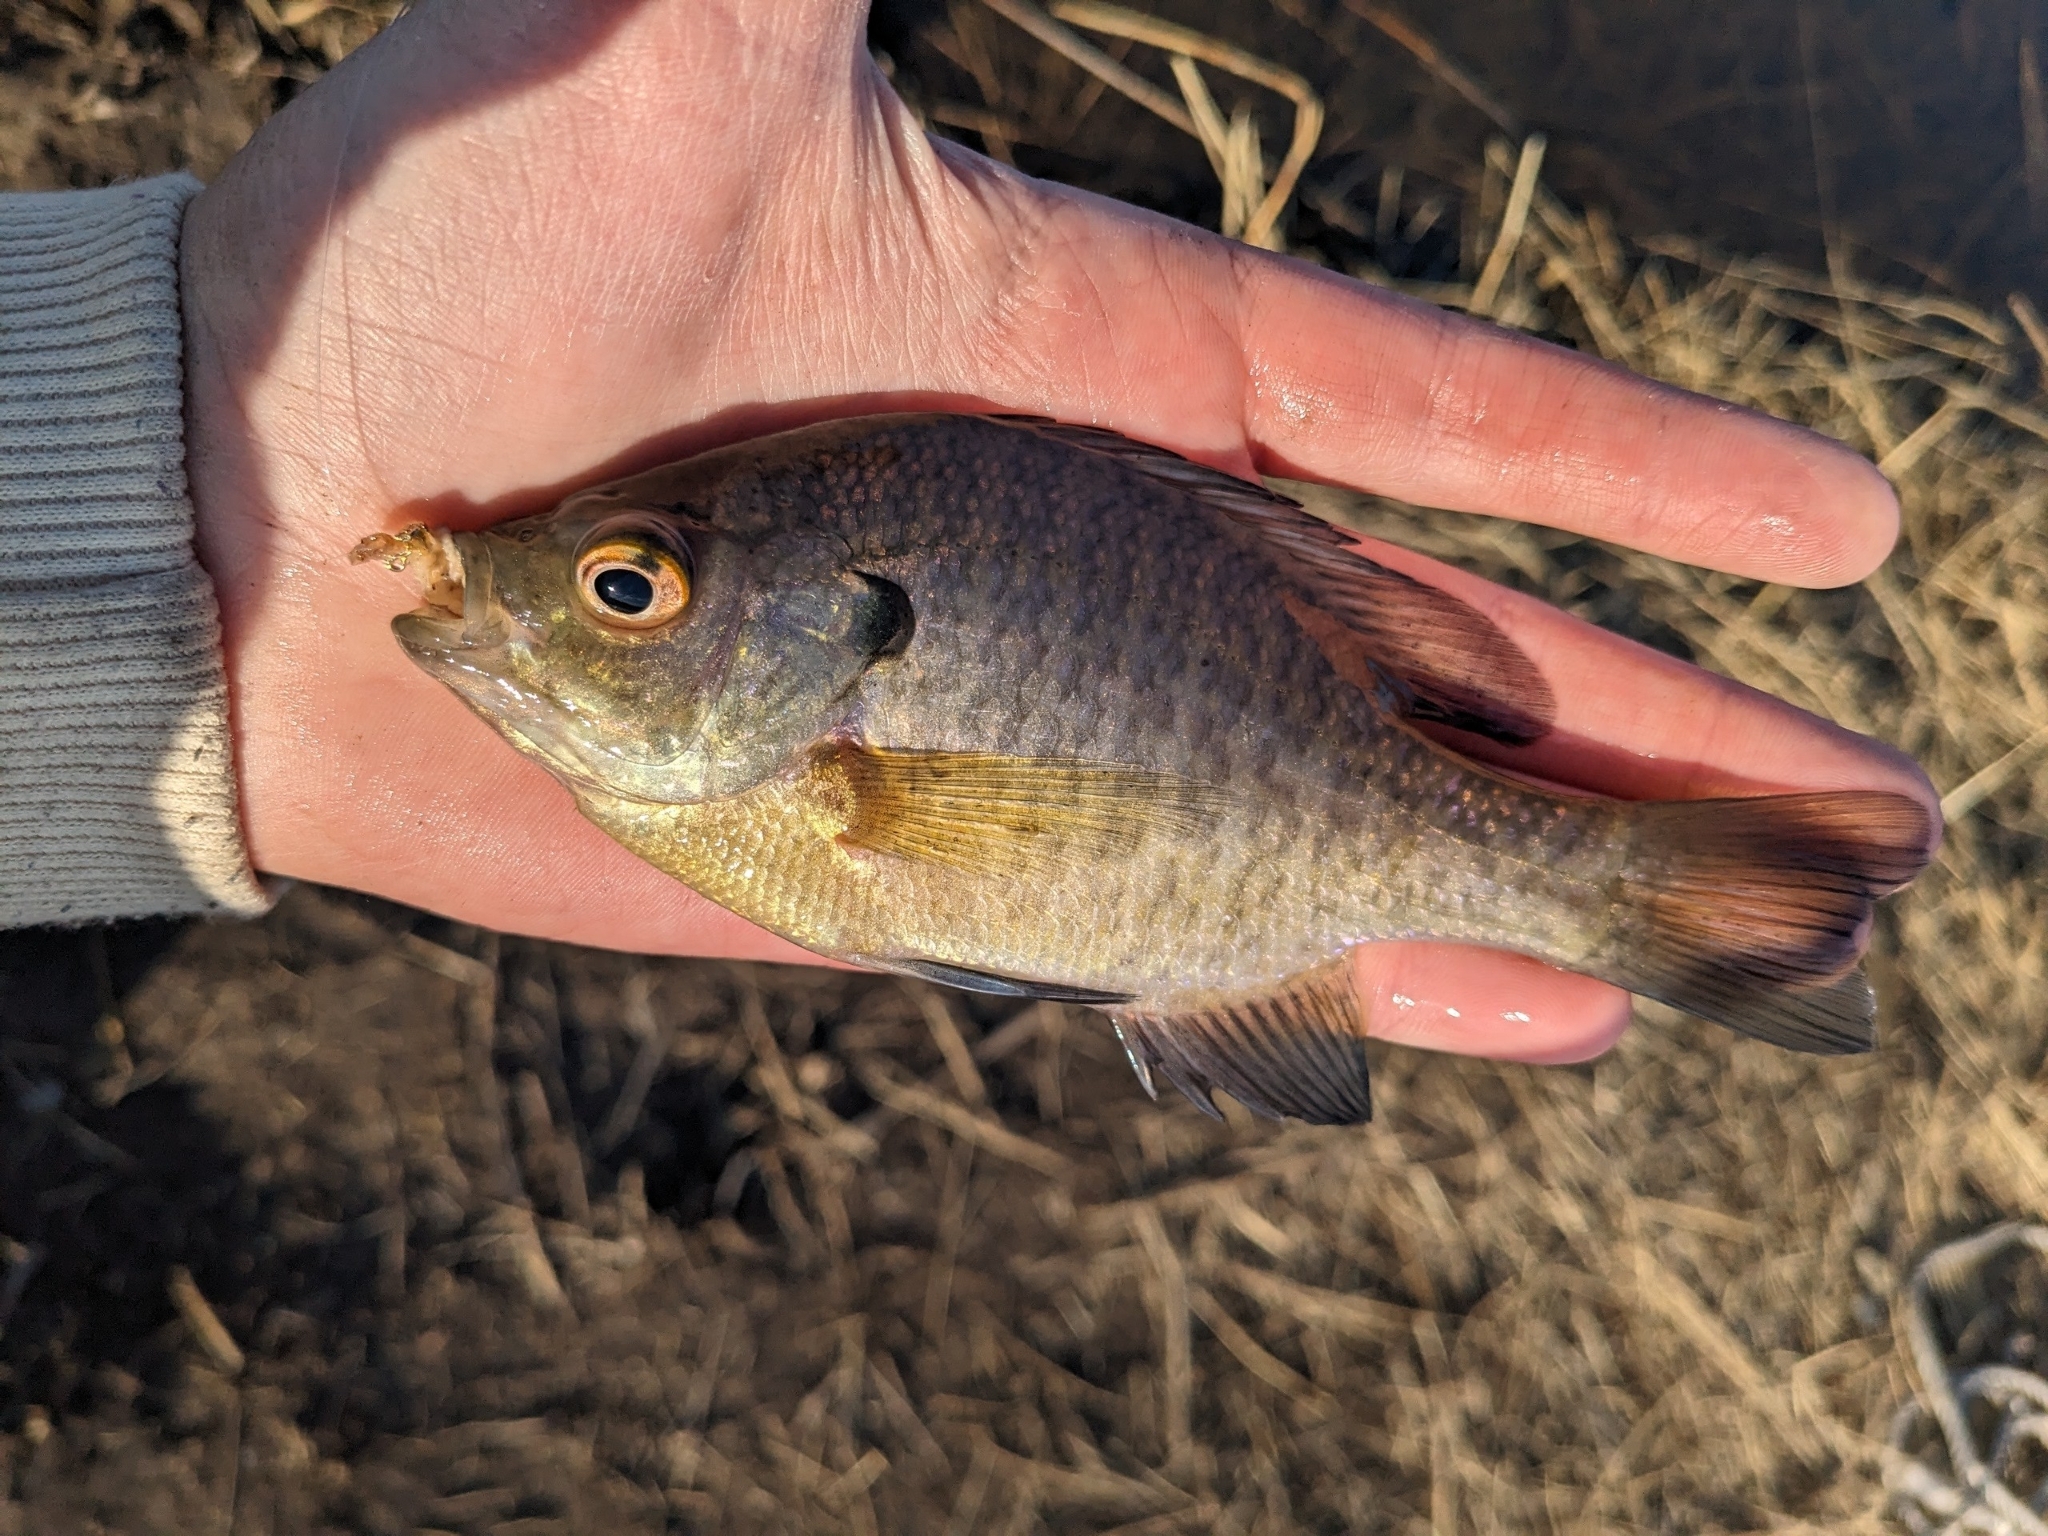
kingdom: Animalia
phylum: Chordata
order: Perciformes
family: Centrarchidae
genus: Lepomis
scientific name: Lepomis macrochirus
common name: Bluegill
